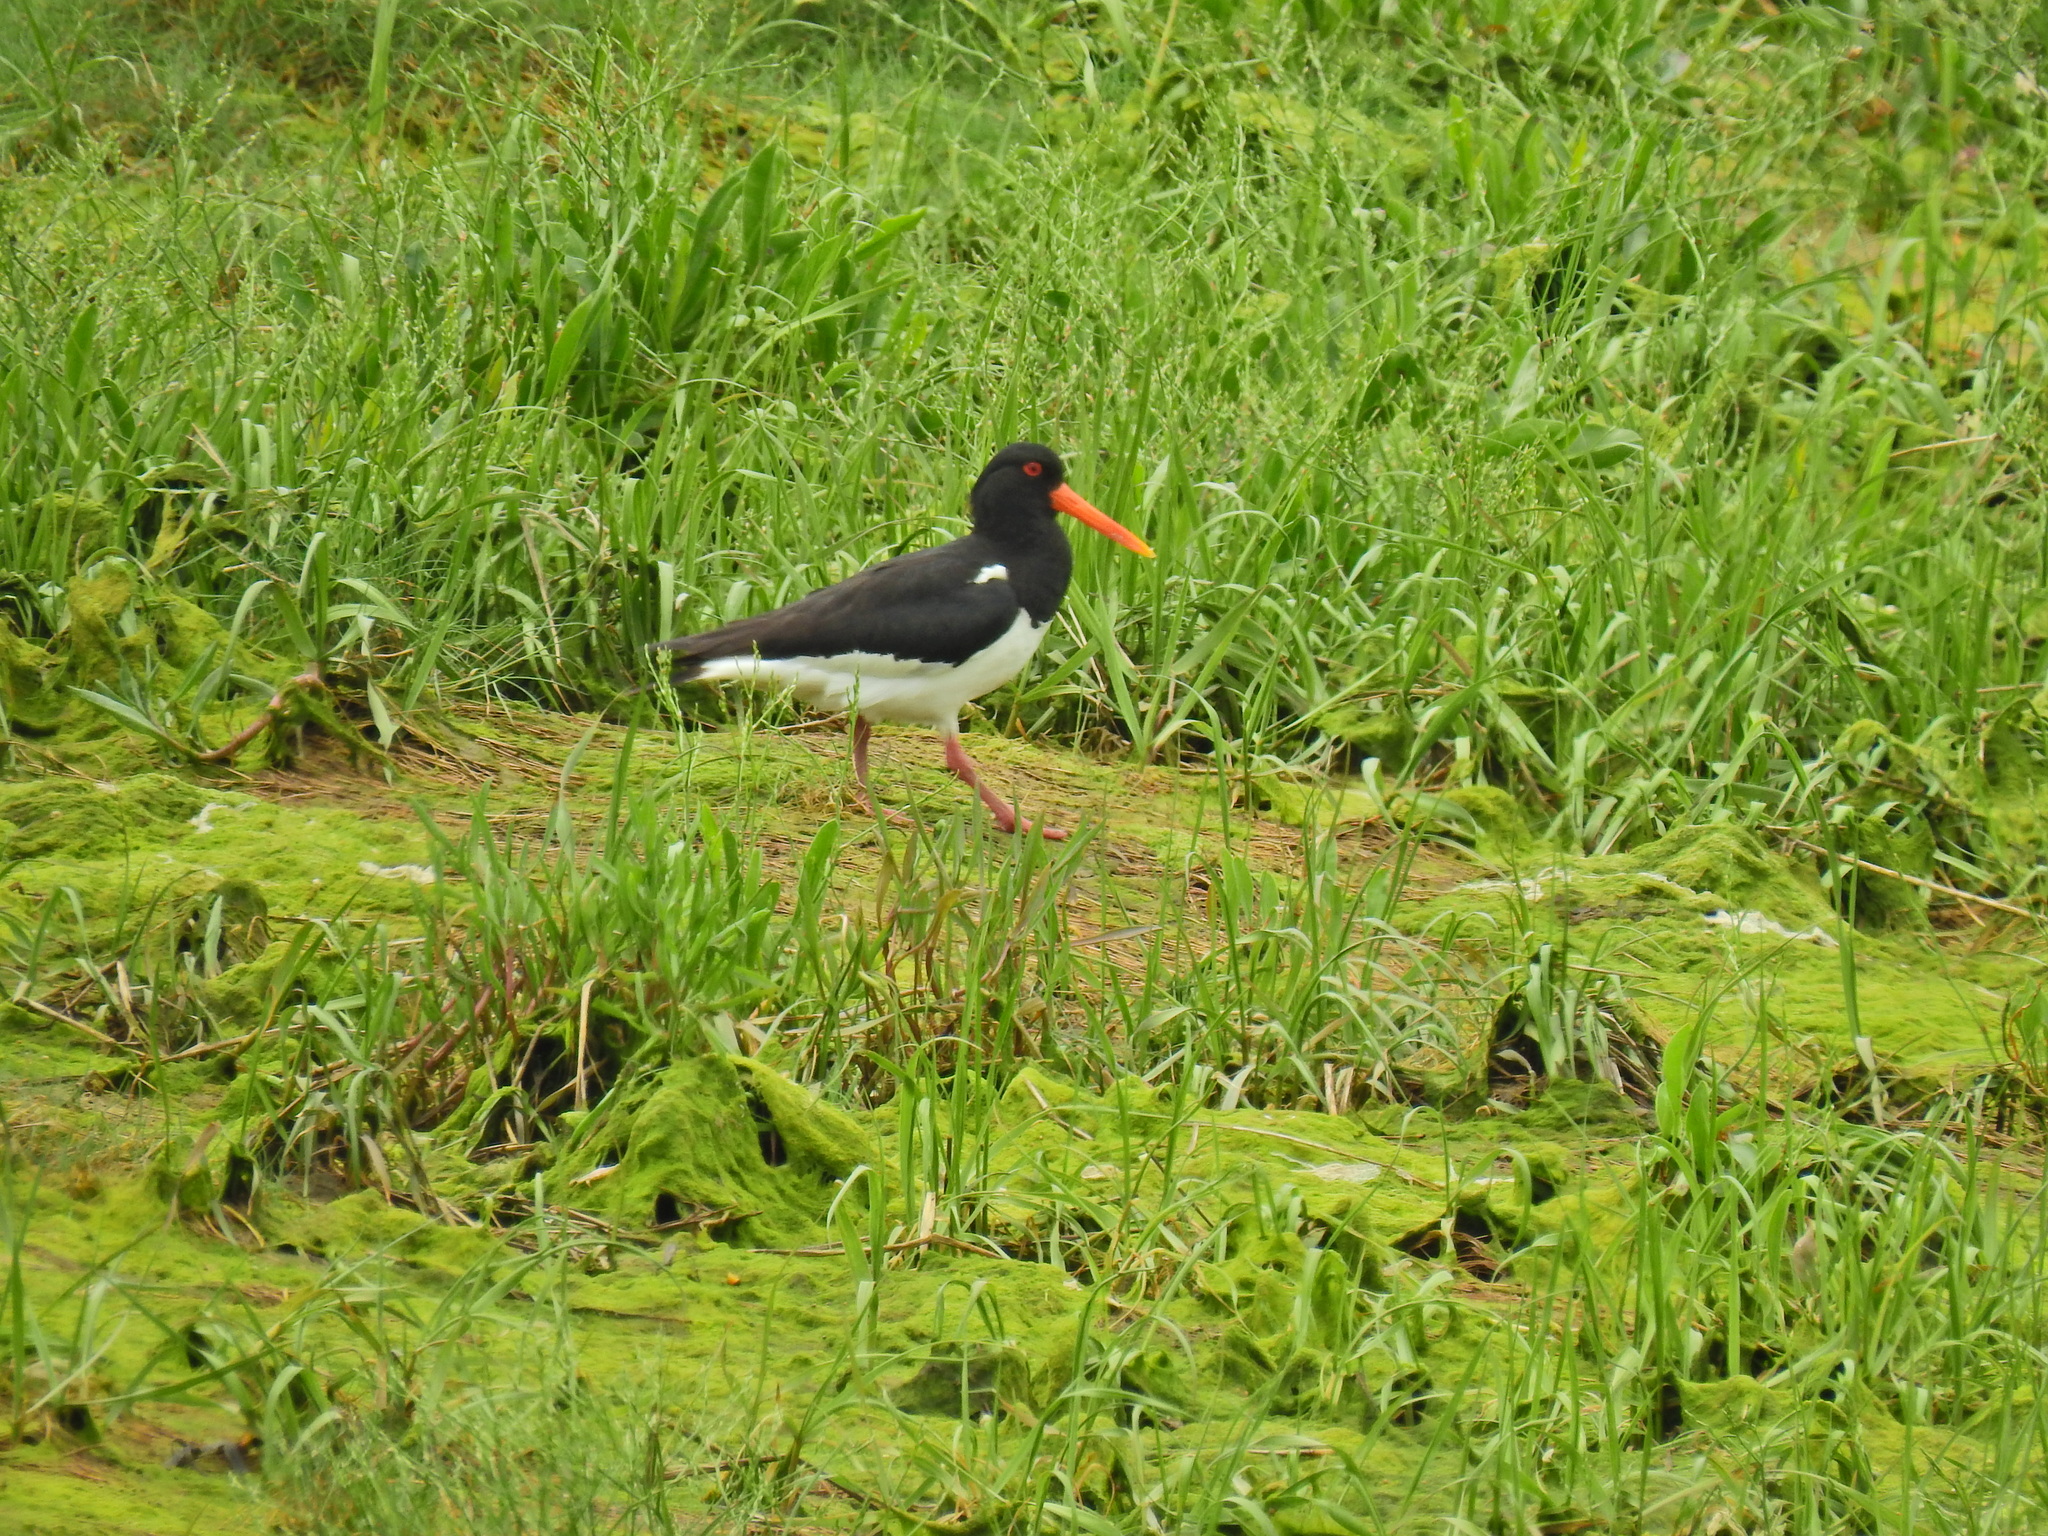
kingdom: Animalia
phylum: Chordata
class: Aves
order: Charadriiformes
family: Haematopodidae
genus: Haematopus
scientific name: Haematopus ostralegus
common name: Eurasian oystercatcher
